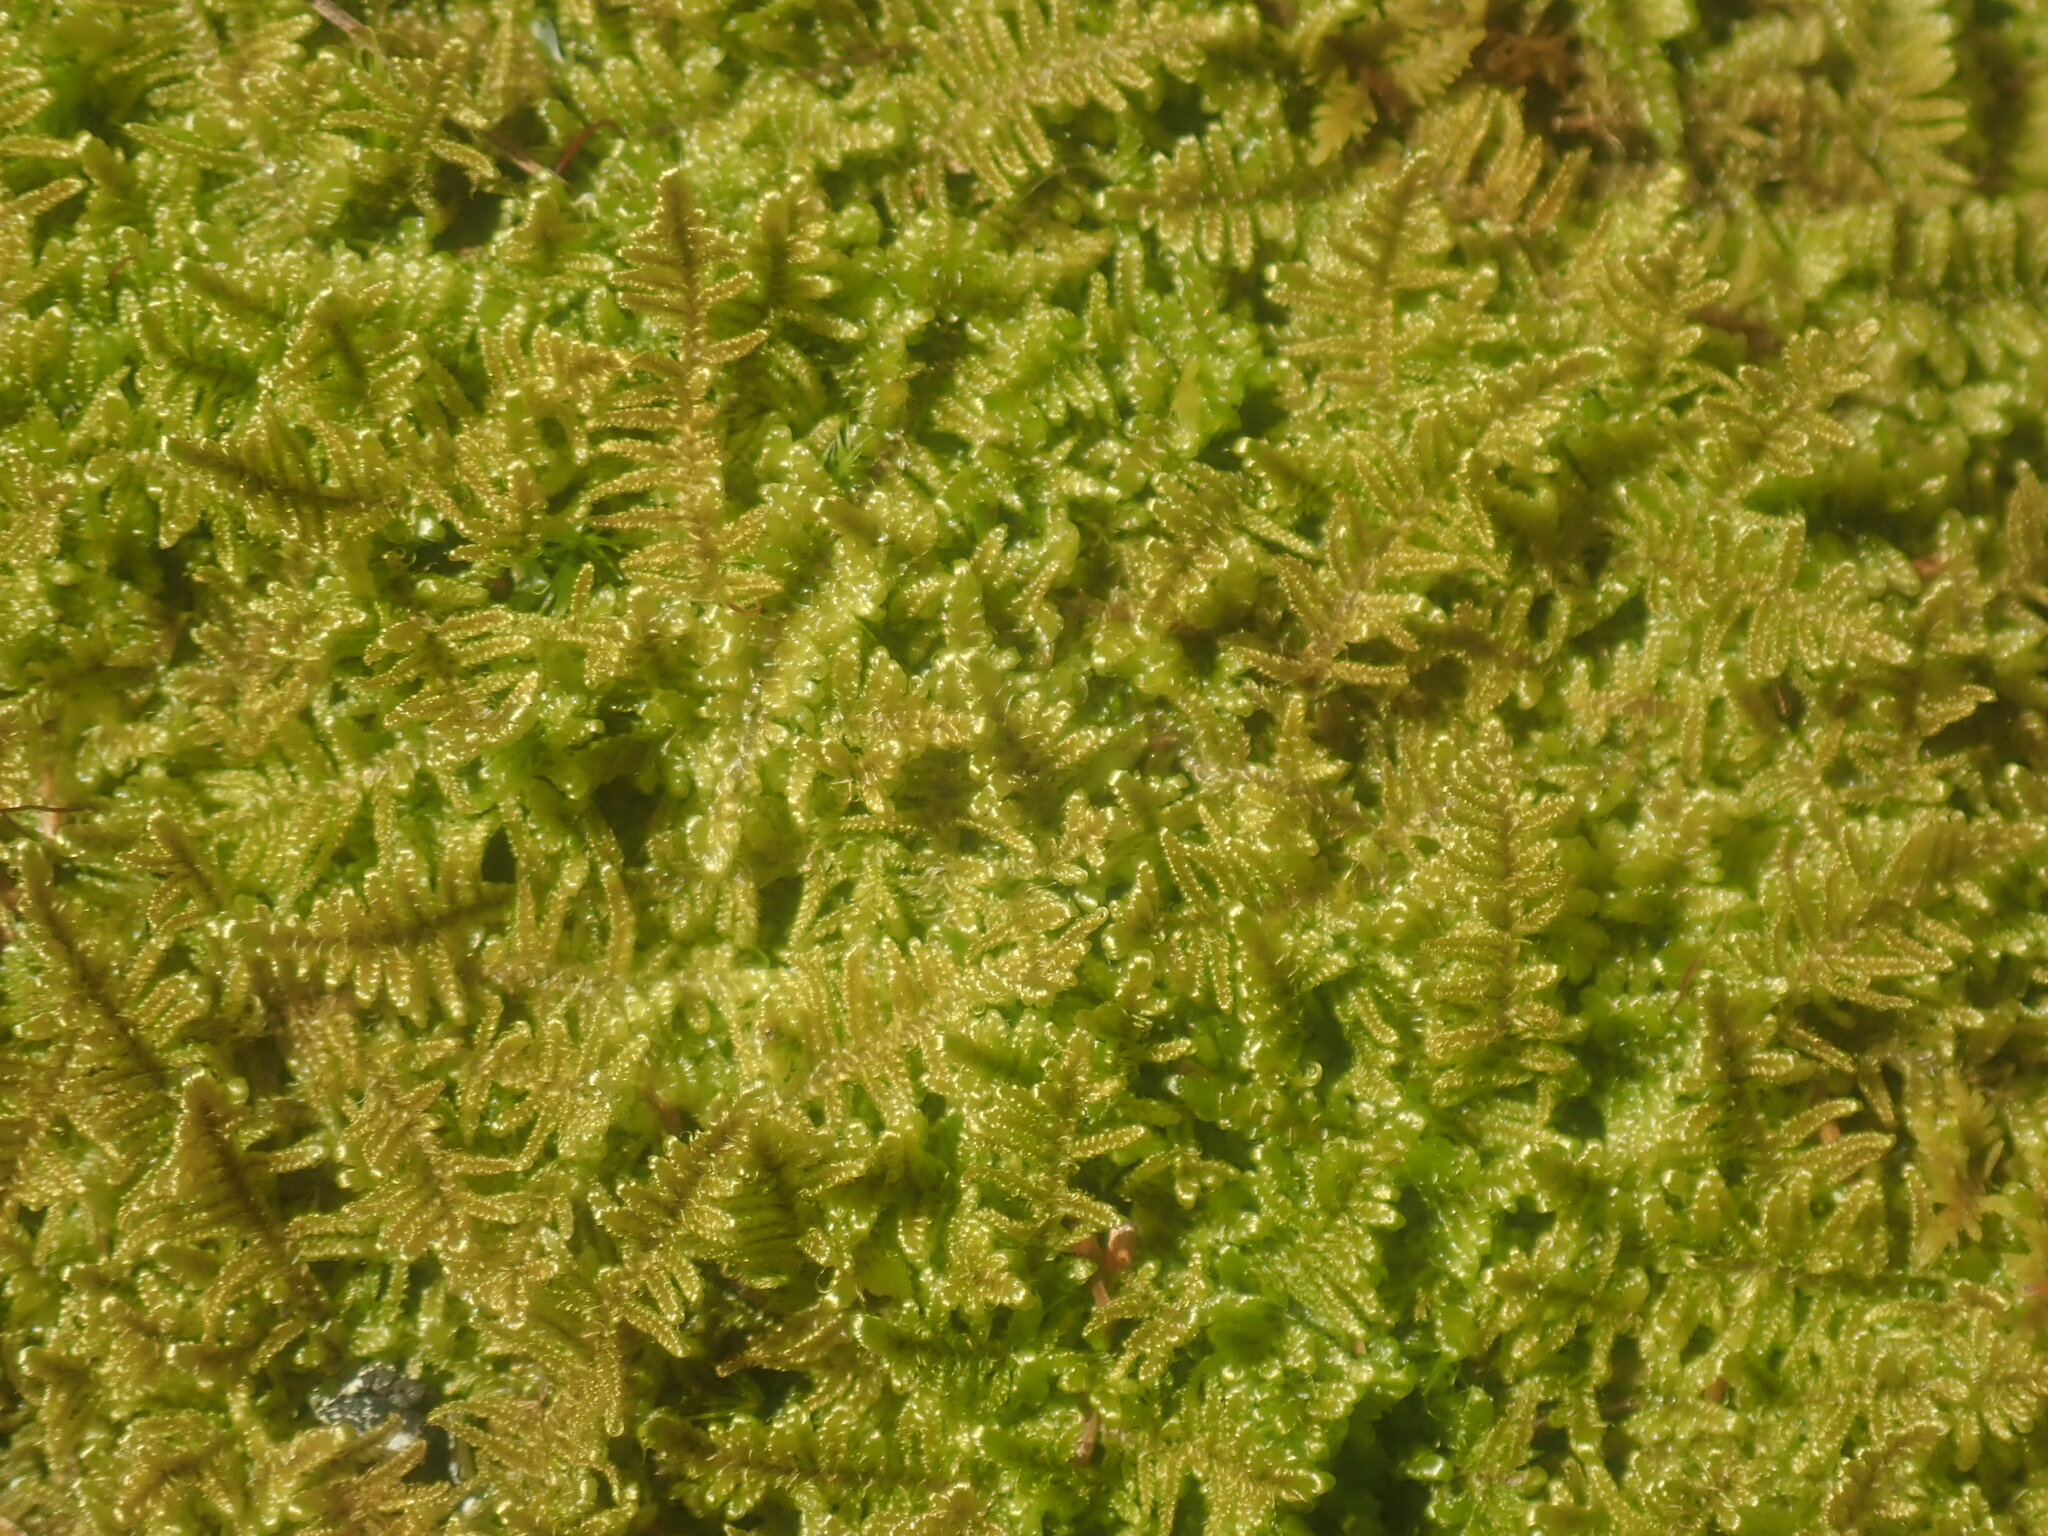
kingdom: Plantae
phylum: Bryophyta
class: Bryopsida
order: Hypnales
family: Callicladiaceae
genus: Callicladium
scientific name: Callicladium imponens
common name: Brocade moss
